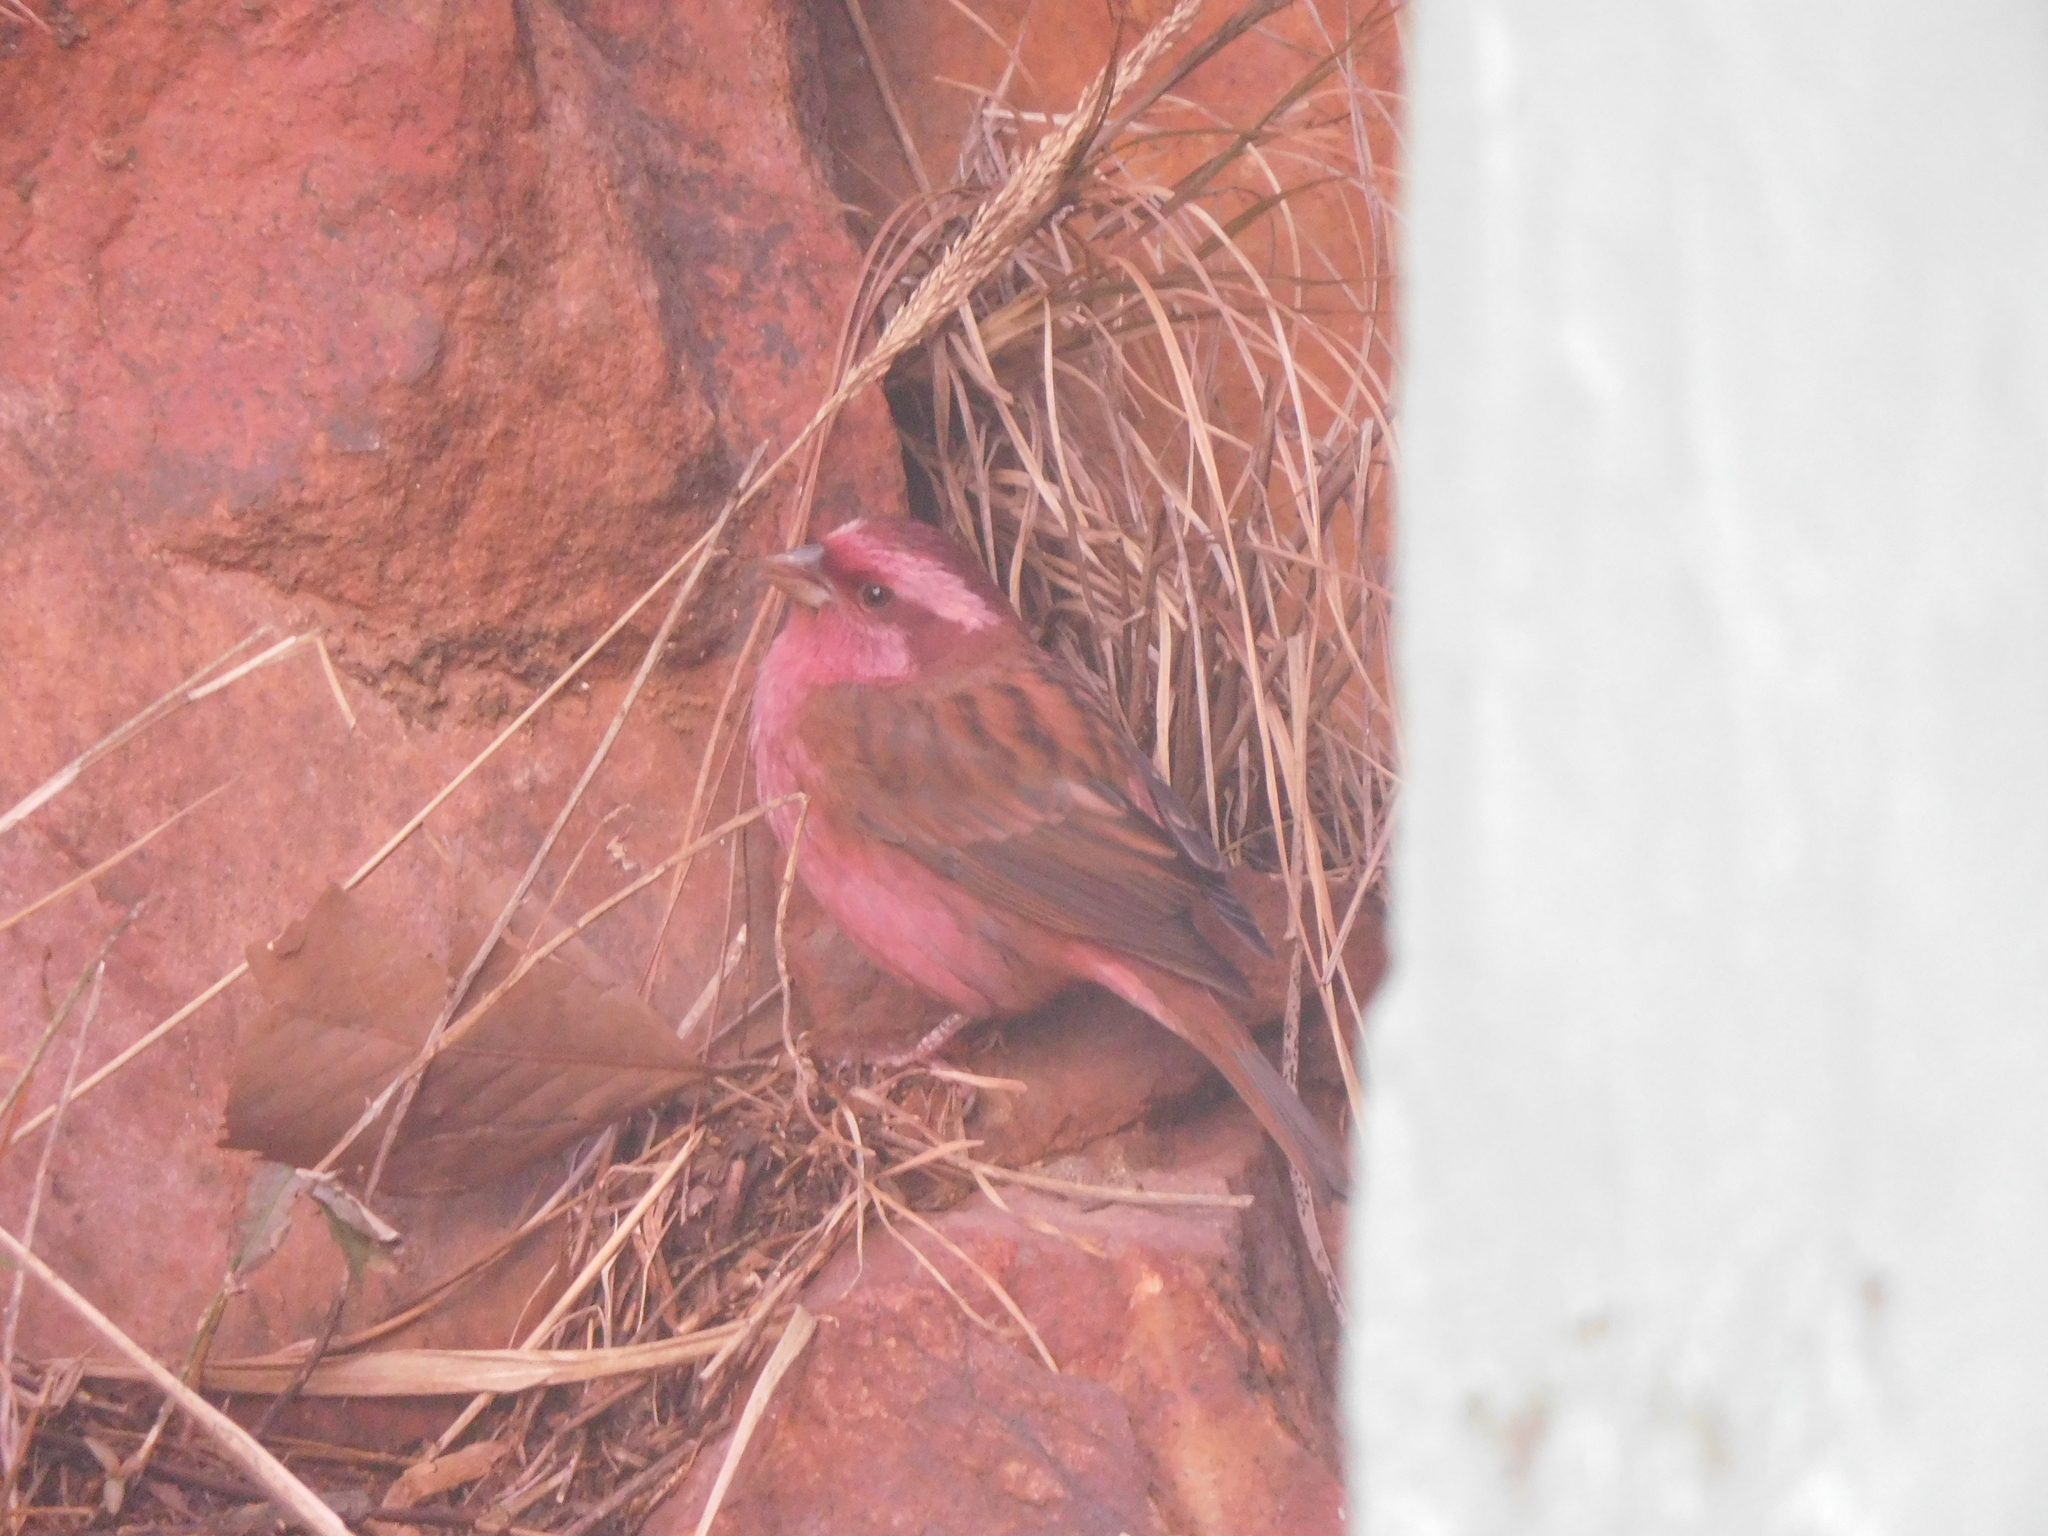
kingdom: Animalia
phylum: Chordata
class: Aves
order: Passeriformes
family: Fringillidae
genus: Carpodacus
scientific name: Carpodacus rodochroa
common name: Pink-browed rosefinch
